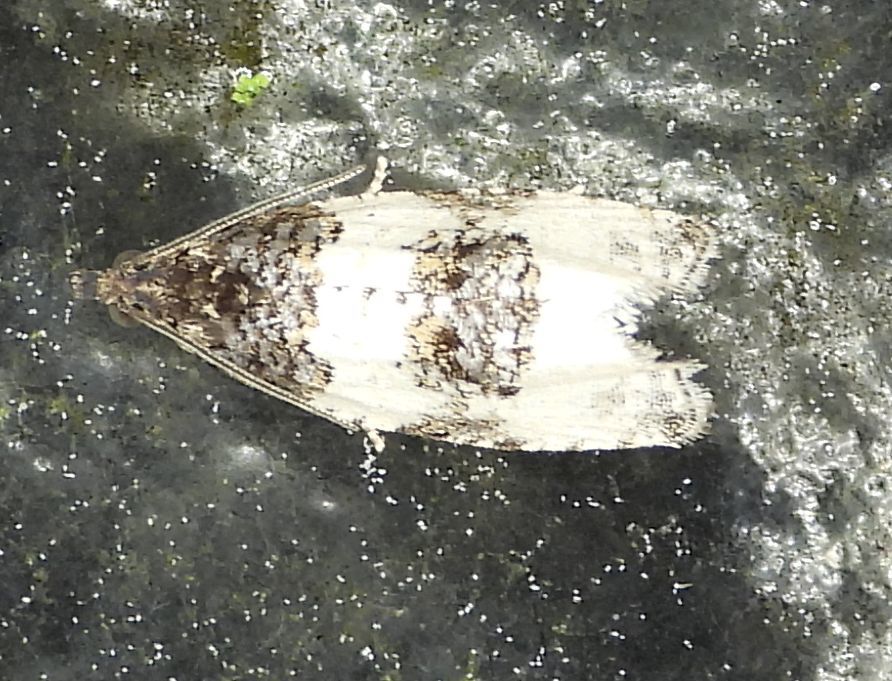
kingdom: Animalia
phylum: Arthropoda
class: Insecta
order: Lepidoptera
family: Tortricidae
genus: Olethreutes
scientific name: Olethreutes bipartitana
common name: Divided olethreutes moth
